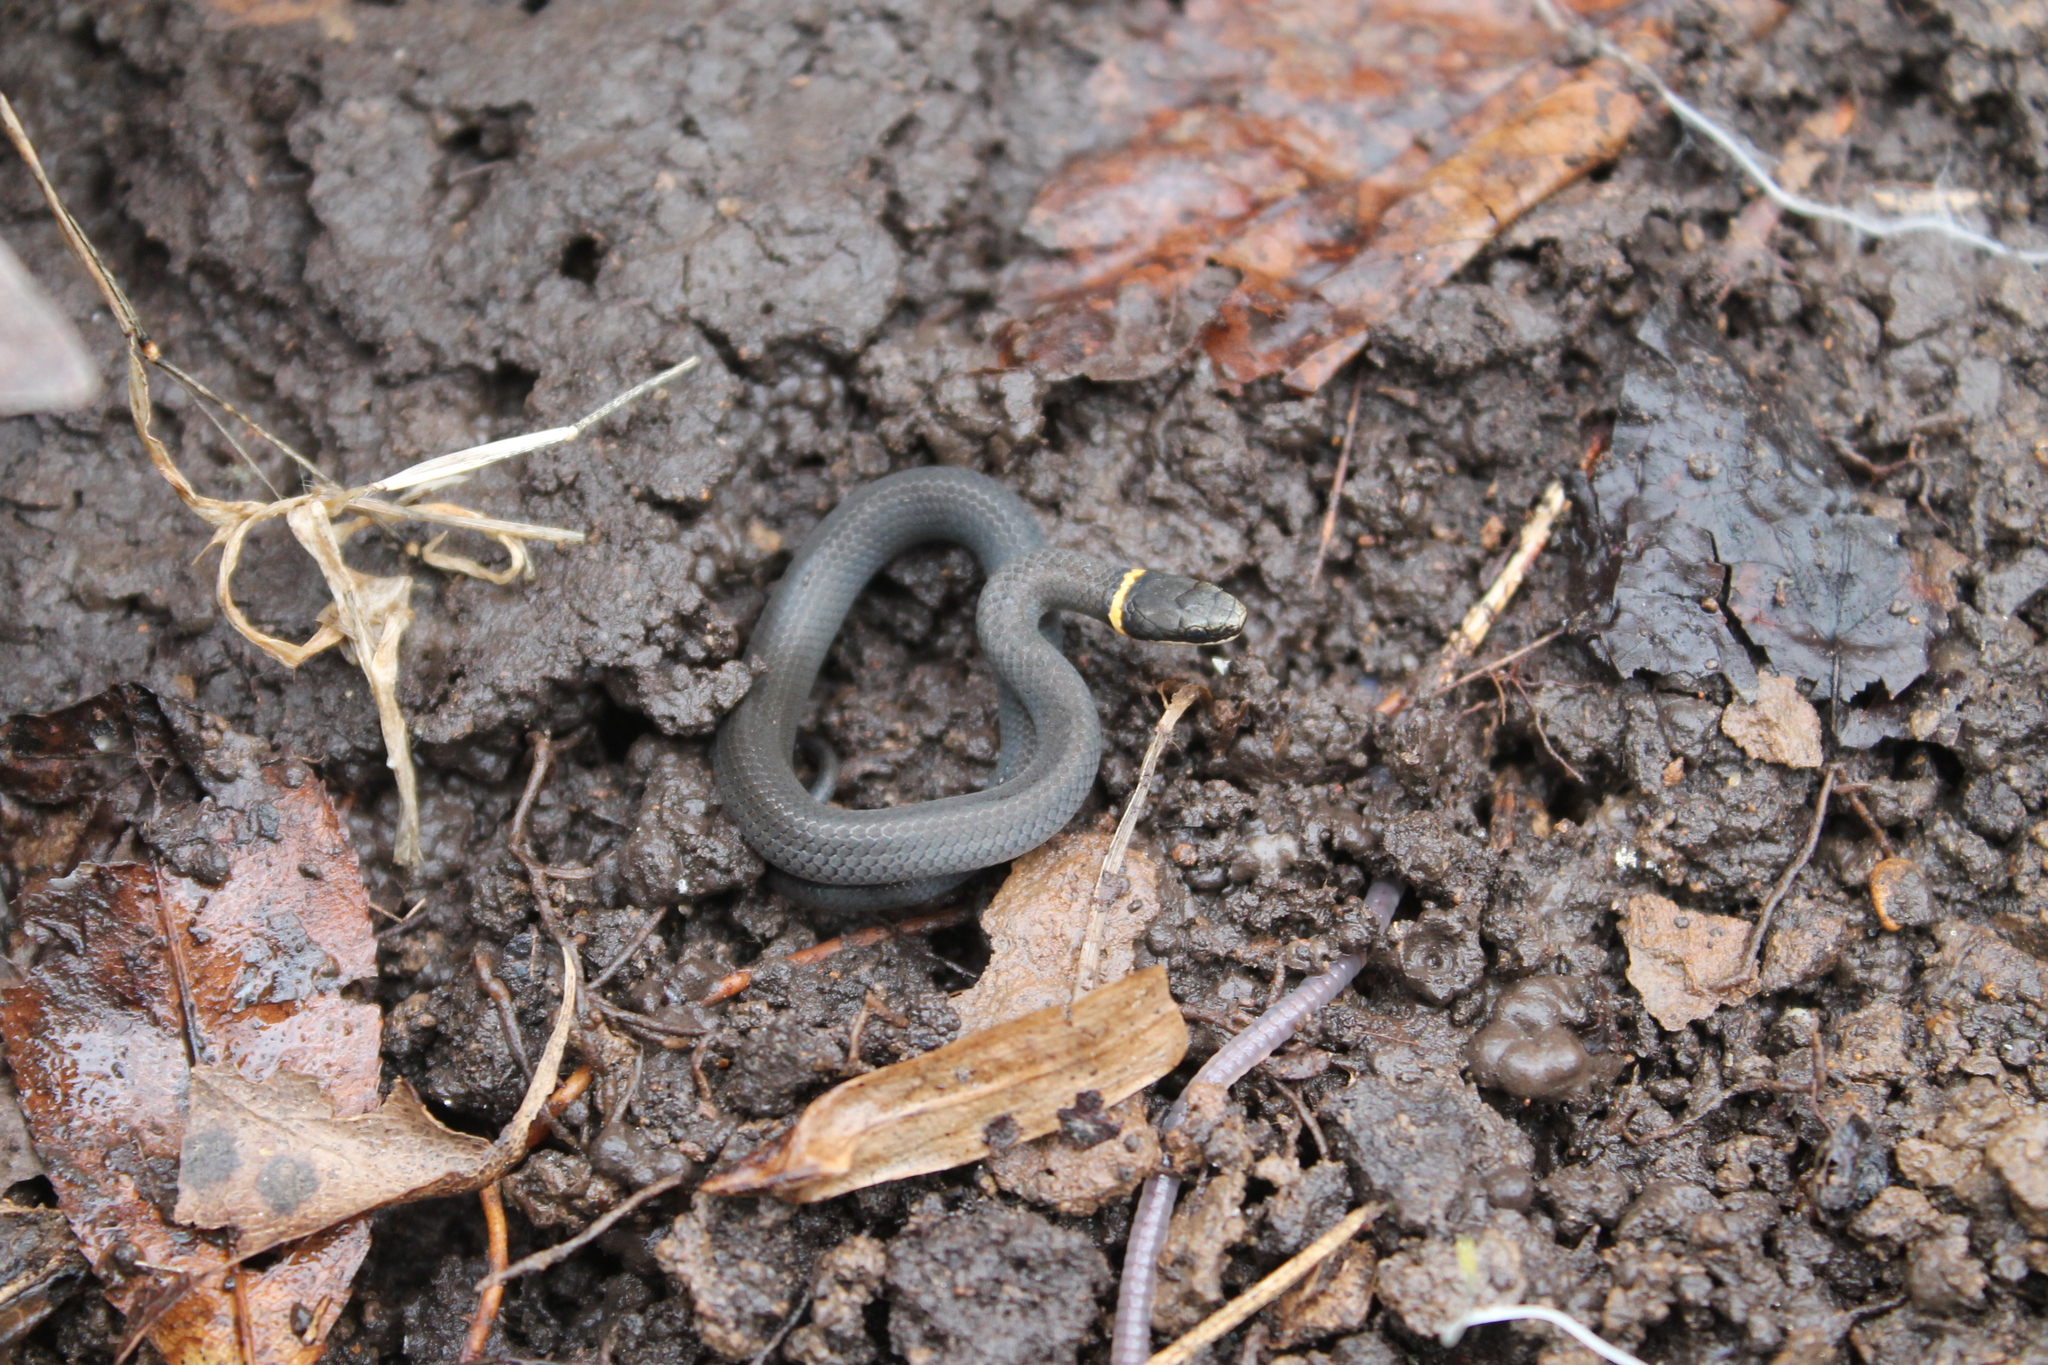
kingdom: Animalia
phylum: Chordata
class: Squamata
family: Colubridae
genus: Diadophis
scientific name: Diadophis punctatus
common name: Ringneck snake
